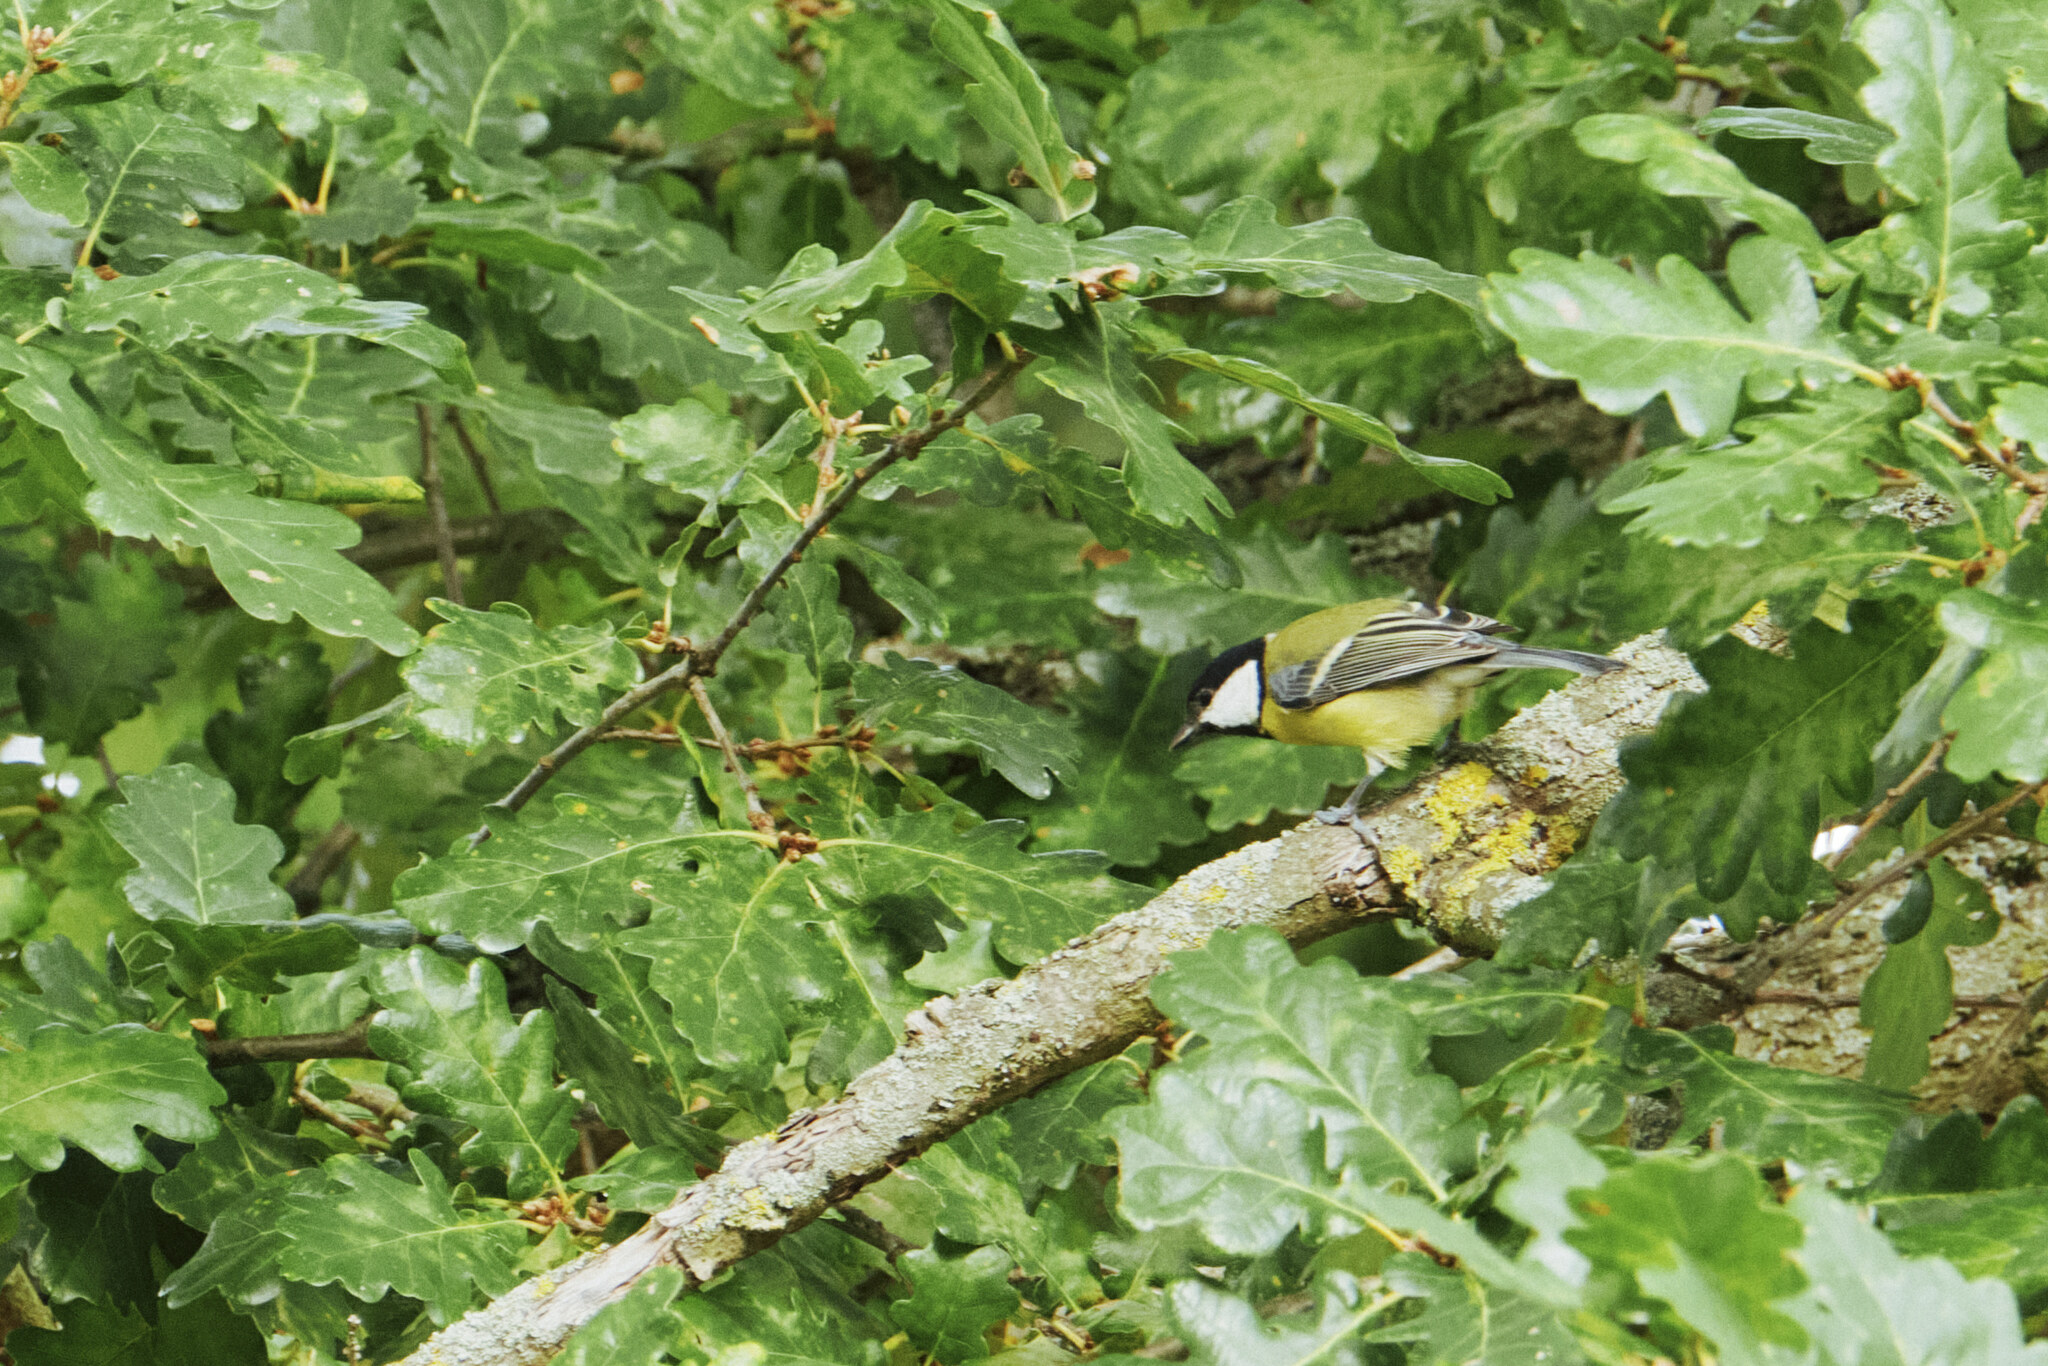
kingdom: Animalia
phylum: Chordata
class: Aves
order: Passeriformes
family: Paridae
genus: Parus
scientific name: Parus major
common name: Great tit
